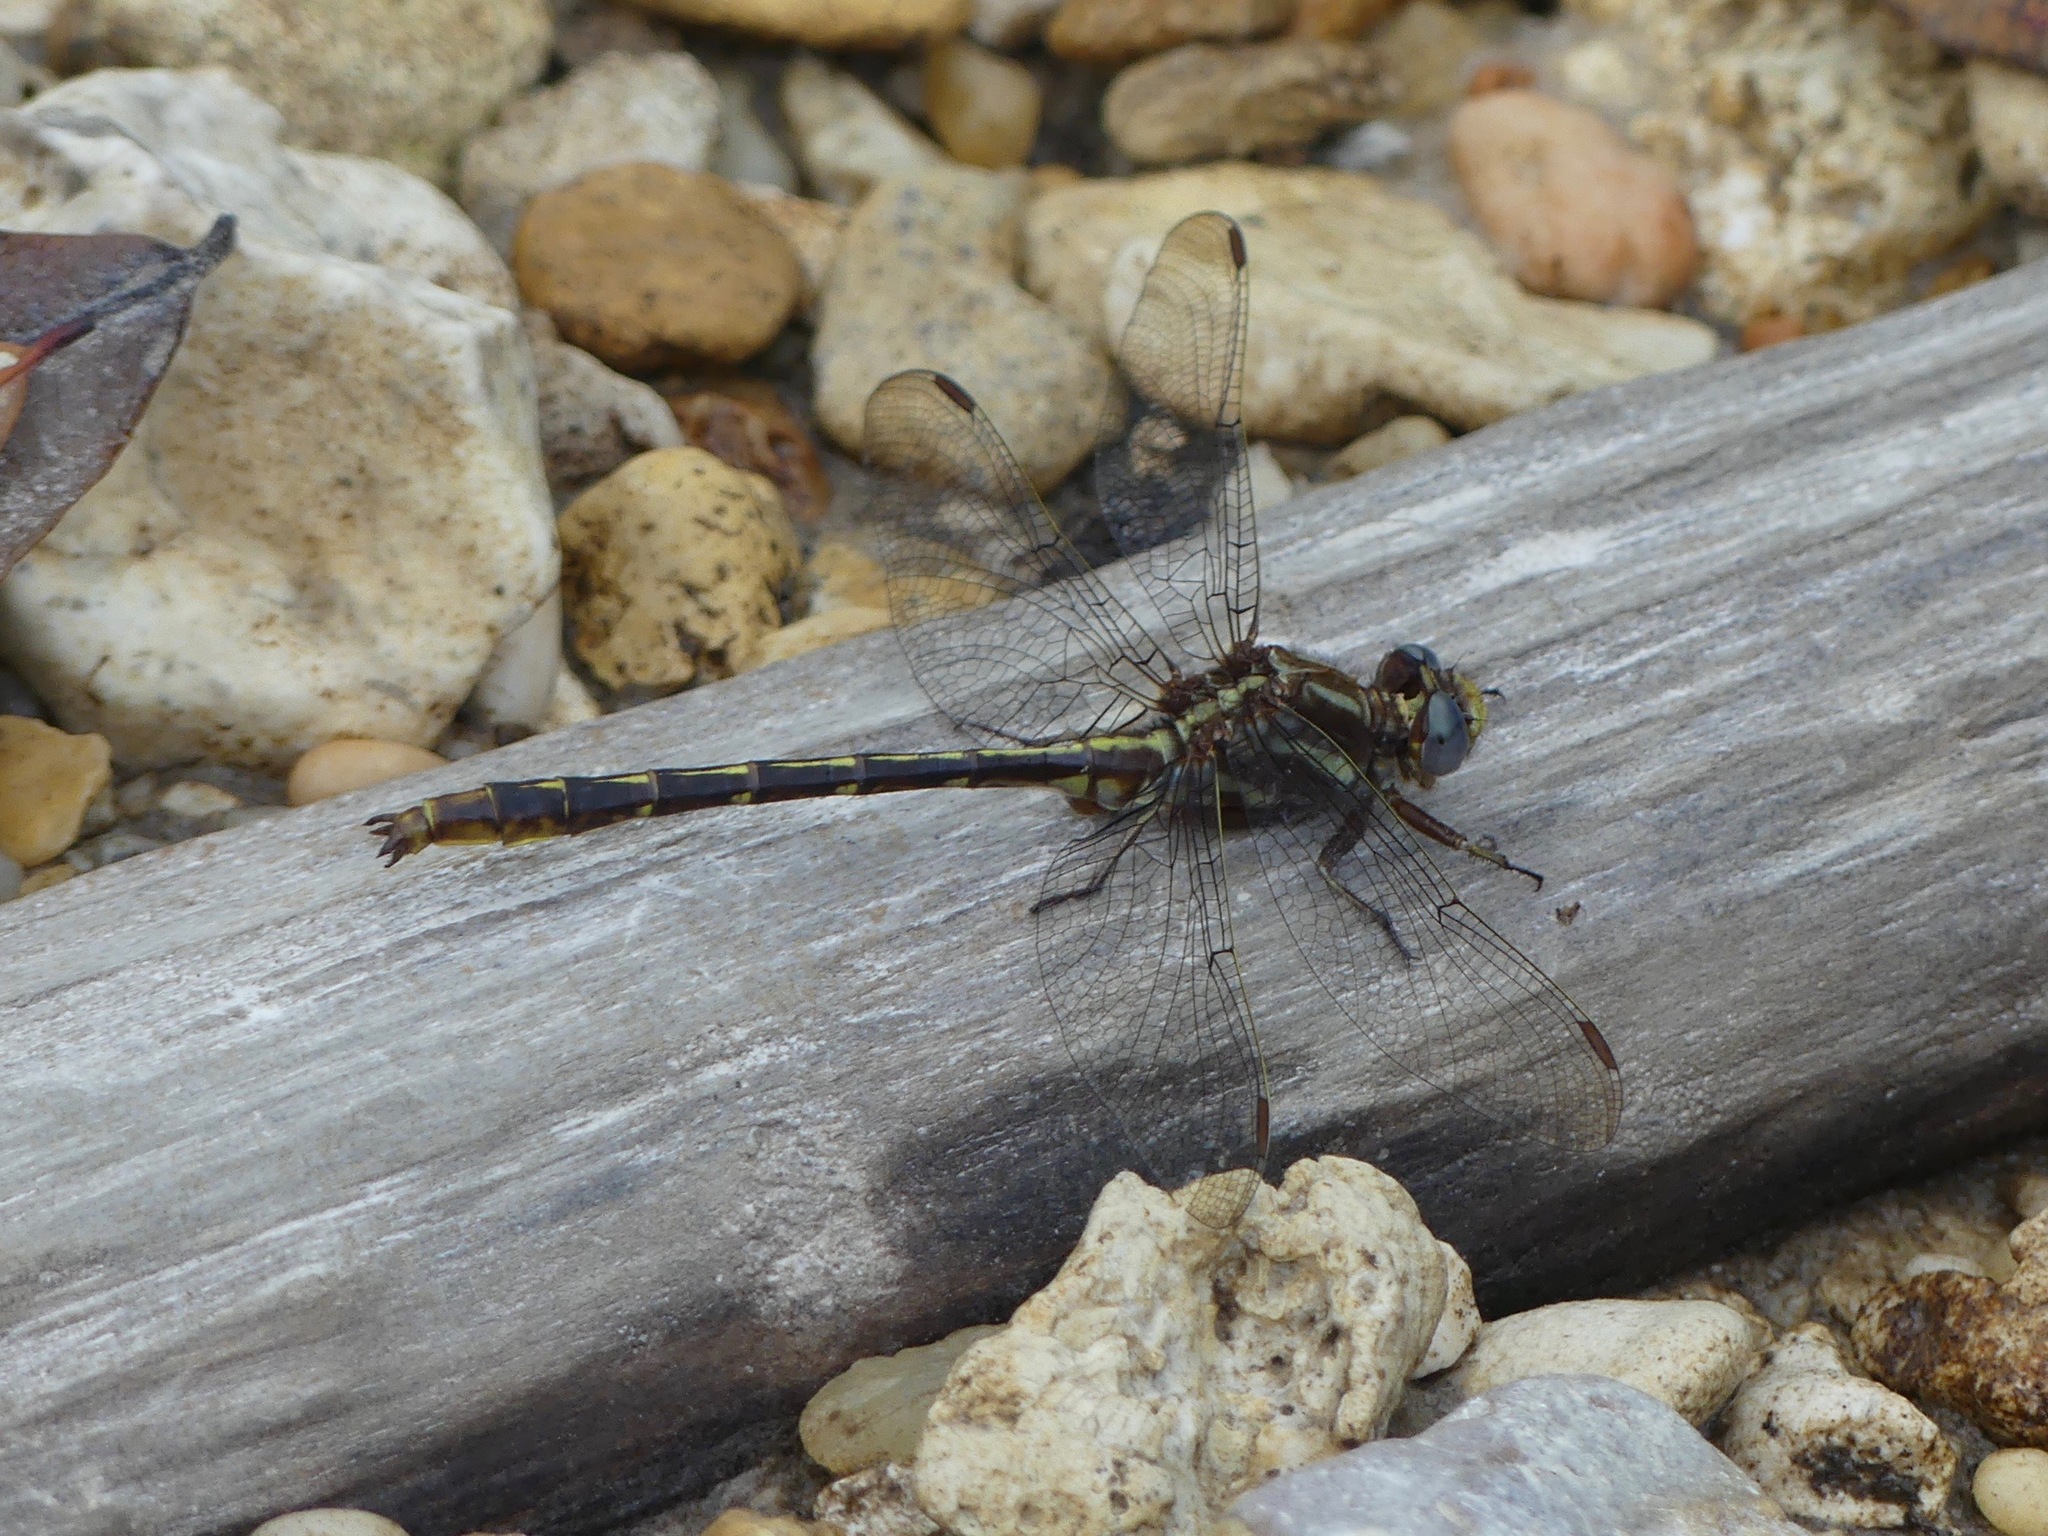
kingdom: Animalia
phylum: Arthropoda
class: Insecta
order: Odonata
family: Gomphidae
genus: Phanogomphus
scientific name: Phanogomphus lividus
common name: Ashy clubtail
